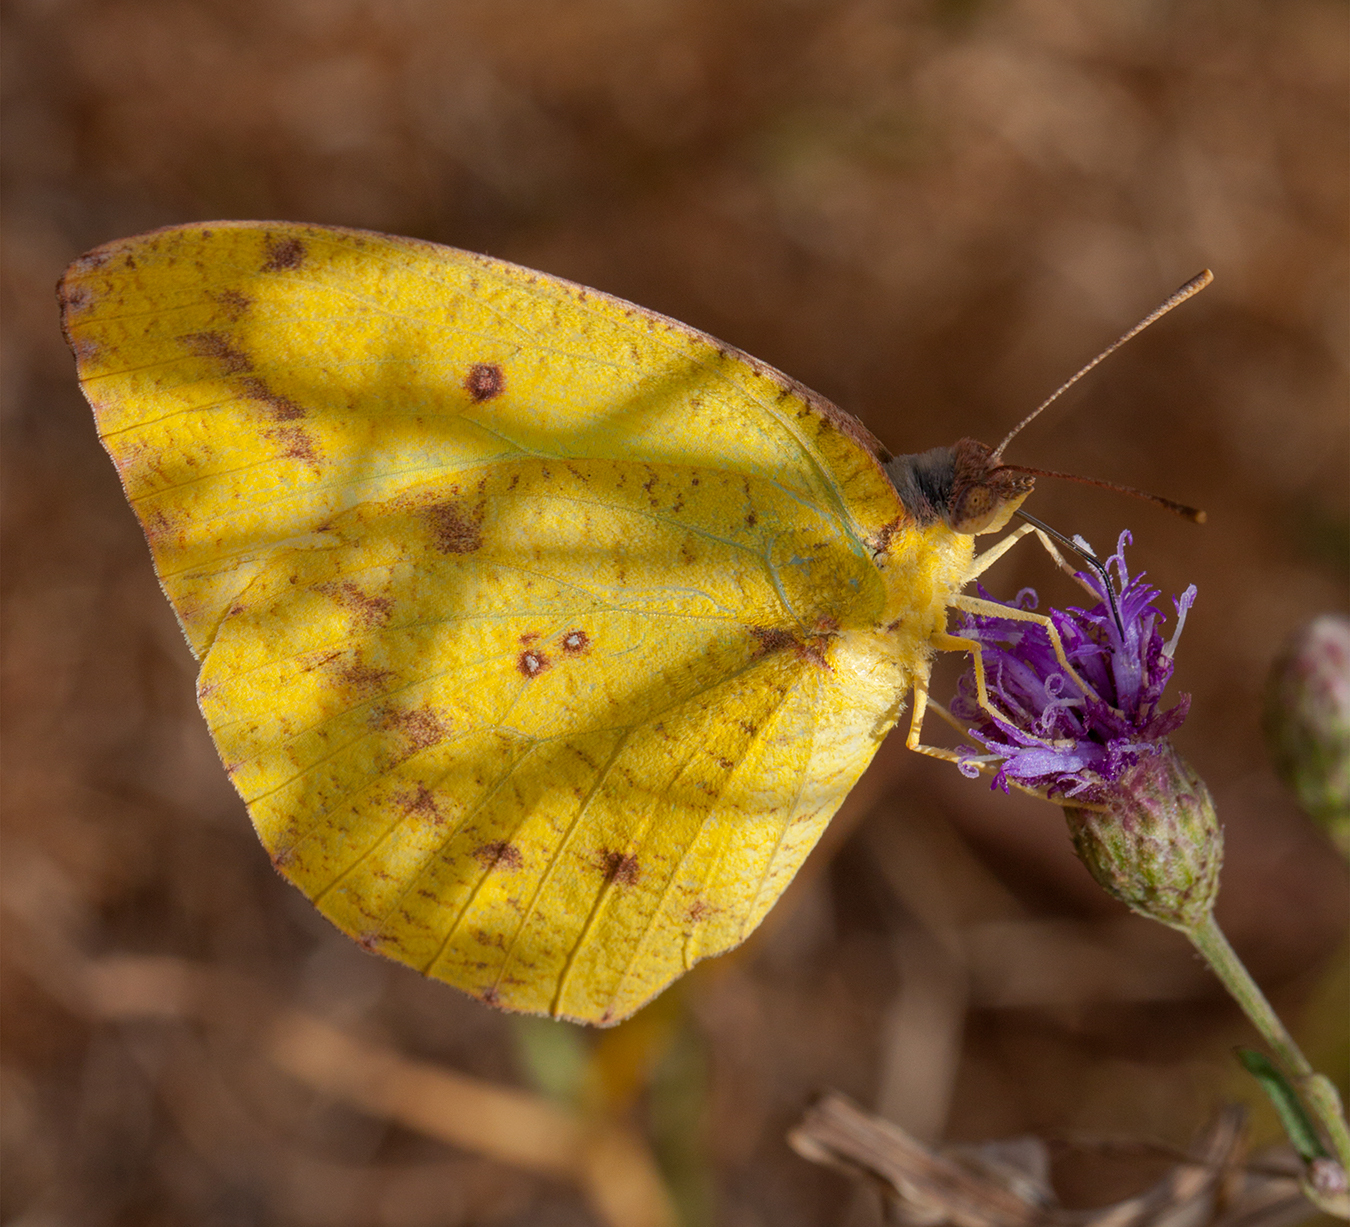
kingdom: Animalia
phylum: Arthropoda
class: Insecta
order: Lepidoptera
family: Pieridae
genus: Catopsilia
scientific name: Catopsilia florella
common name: African migrant
